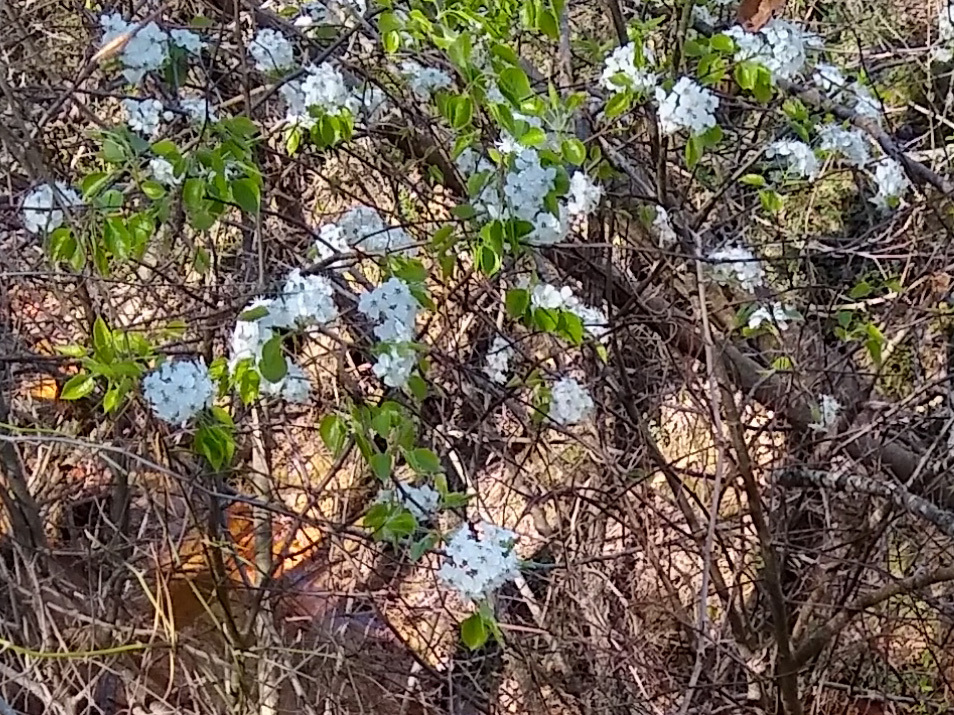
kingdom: Plantae
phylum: Tracheophyta
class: Magnoliopsida
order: Rosales
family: Rosaceae
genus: Pyrus
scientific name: Pyrus calleryana
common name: Callery pear
